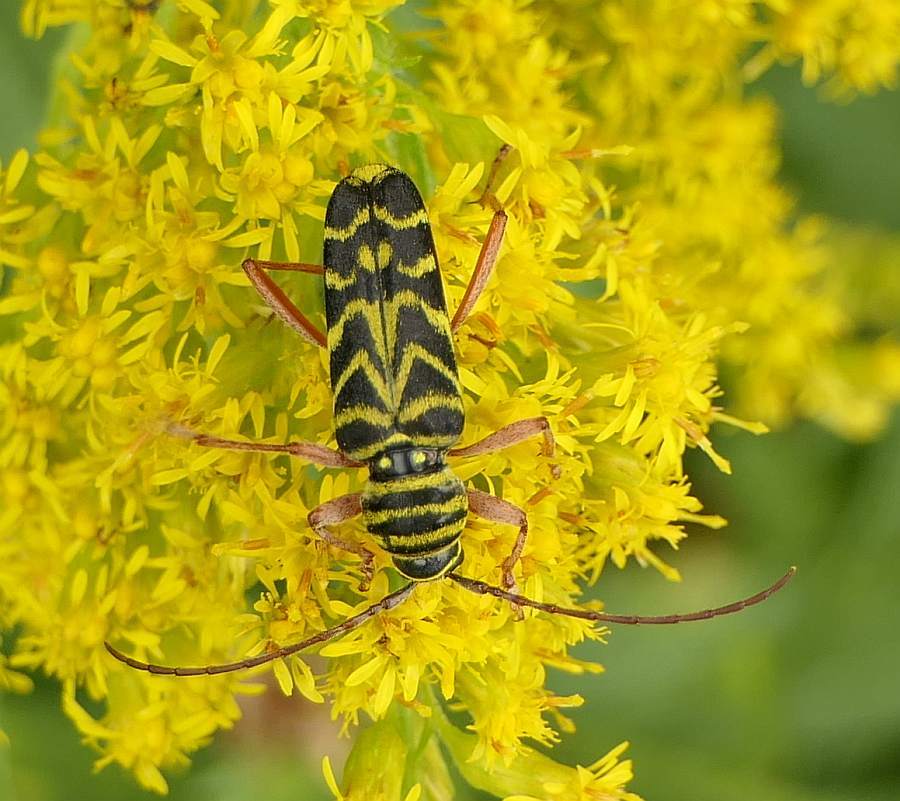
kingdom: Animalia
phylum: Arthropoda
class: Insecta
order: Coleoptera
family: Cerambycidae
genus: Megacyllene
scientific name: Megacyllene robiniae
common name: Locust borer
